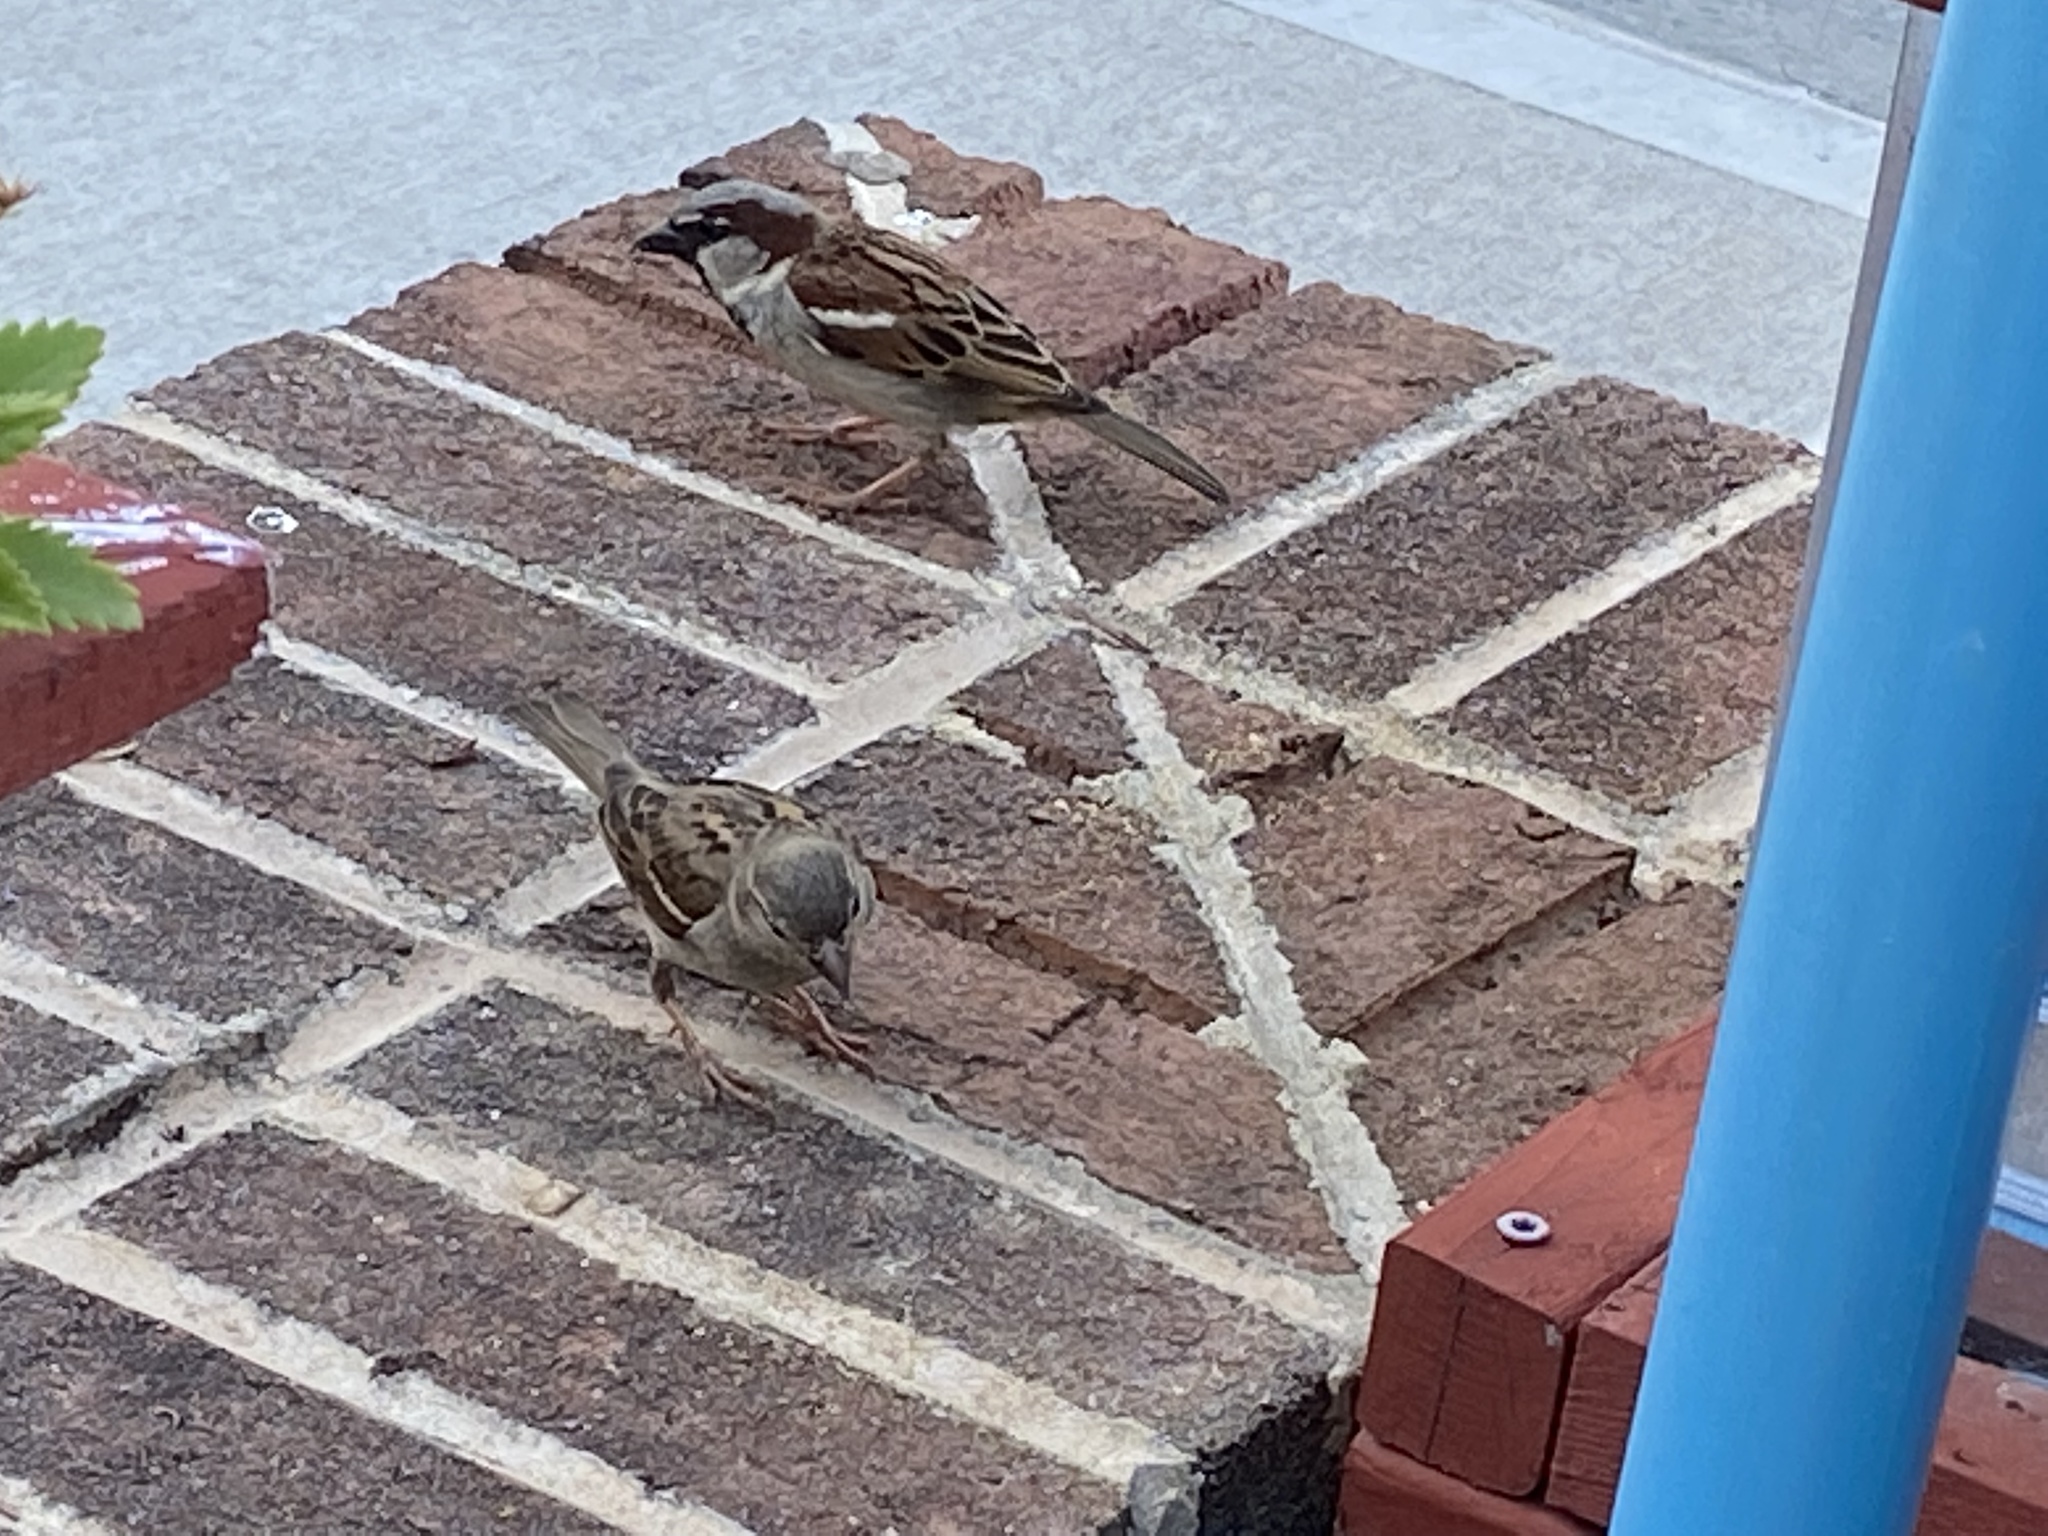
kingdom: Animalia
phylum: Chordata
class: Aves
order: Passeriformes
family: Passeridae
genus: Passer
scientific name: Passer domesticus
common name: House sparrow
